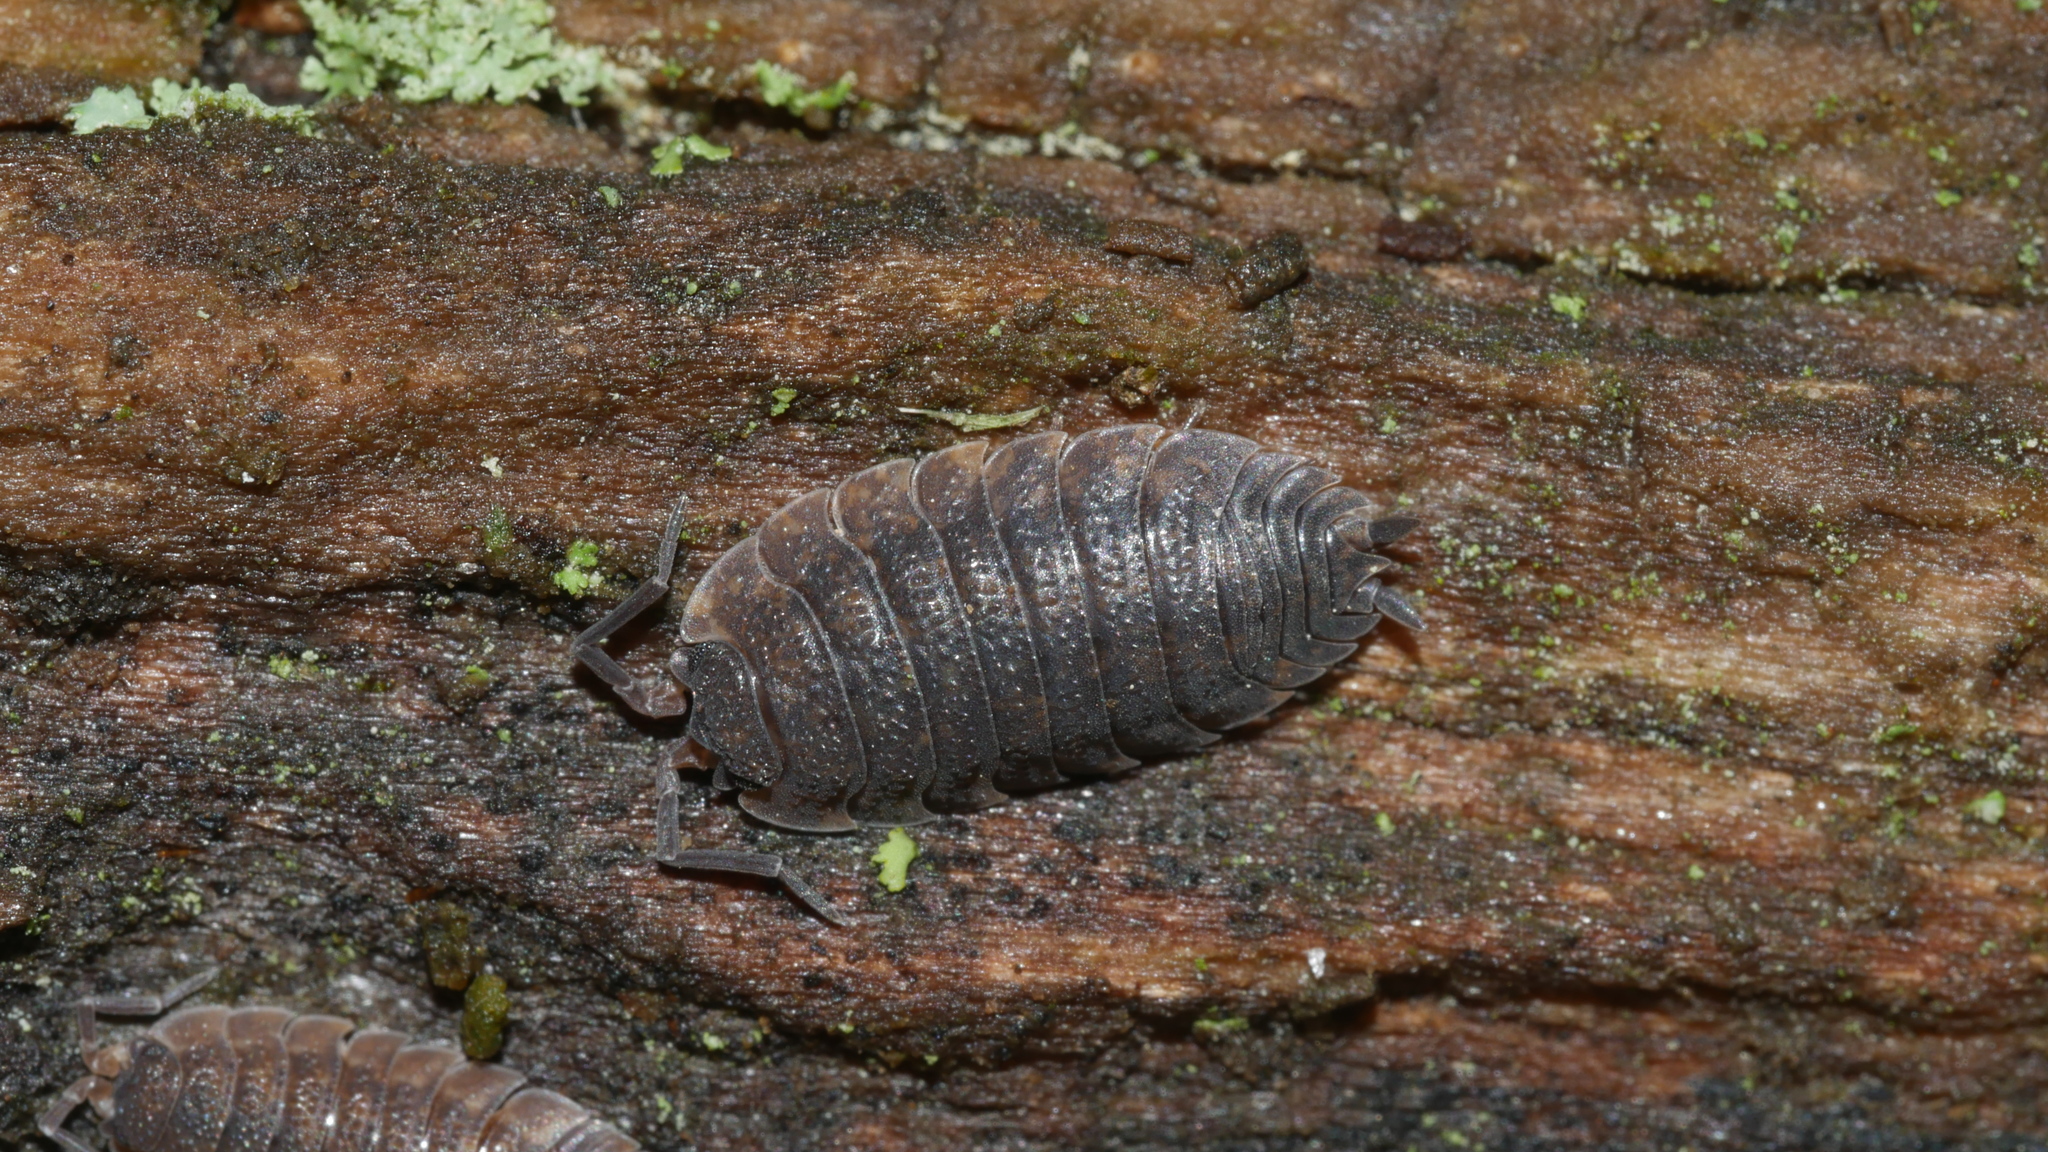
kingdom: Animalia
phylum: Arthropoda
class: Malacostraca
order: Isopoda
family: Porcellionidae
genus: Porcellio
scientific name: Porcellio scaber
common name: Common rough woodlouse
